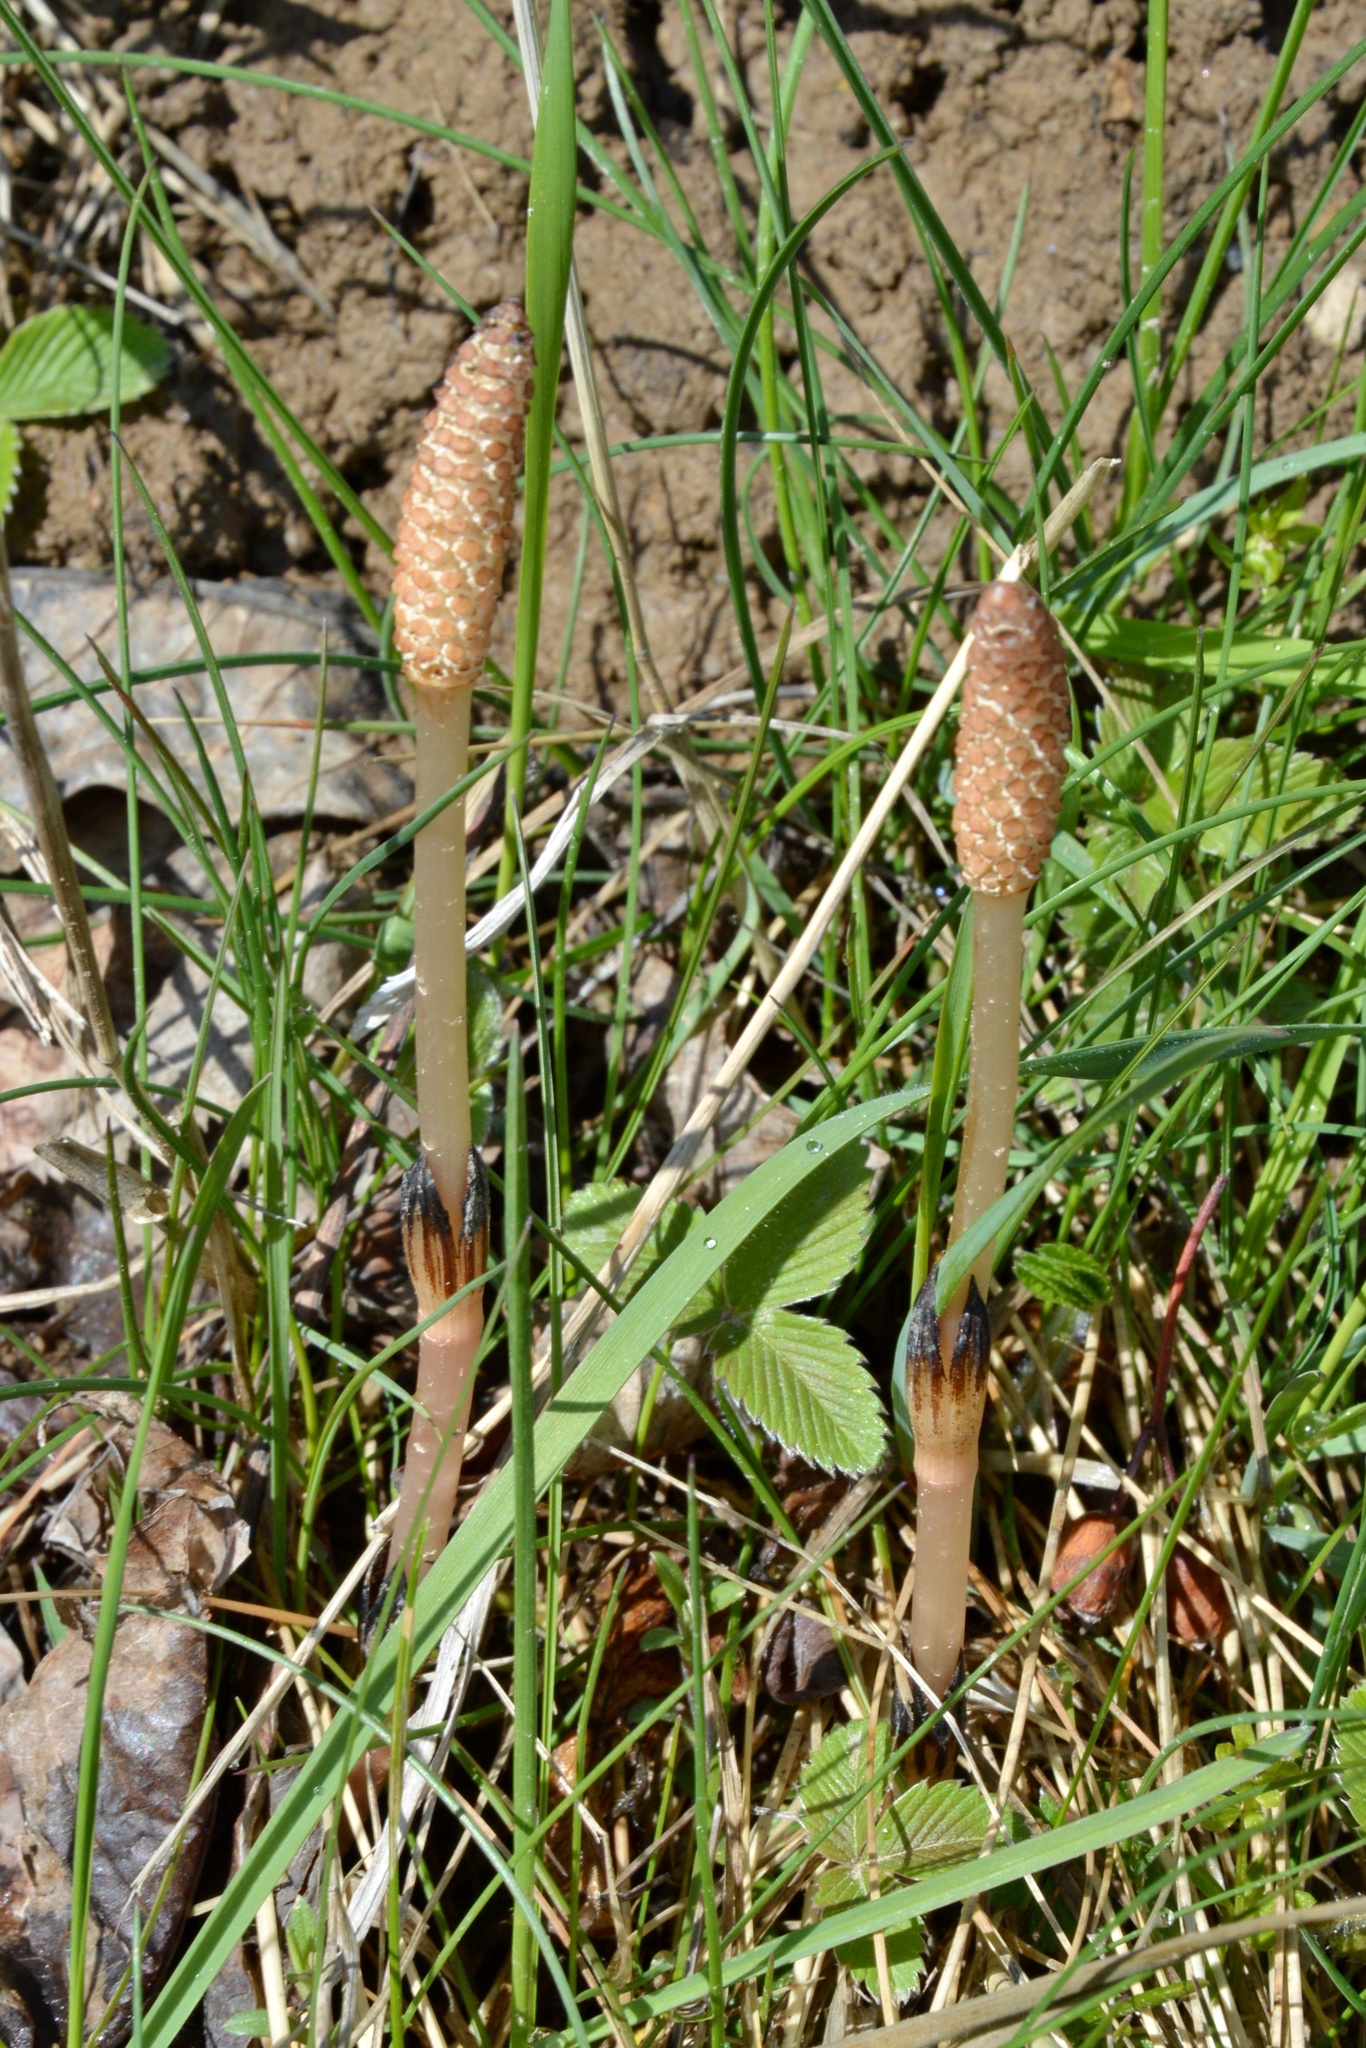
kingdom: Plantae
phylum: Tracheophyta
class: Polypodiopsida
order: Equisetales
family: Equisetaceae
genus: Equisetum
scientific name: Equisetum arvense
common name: Field horsetail
